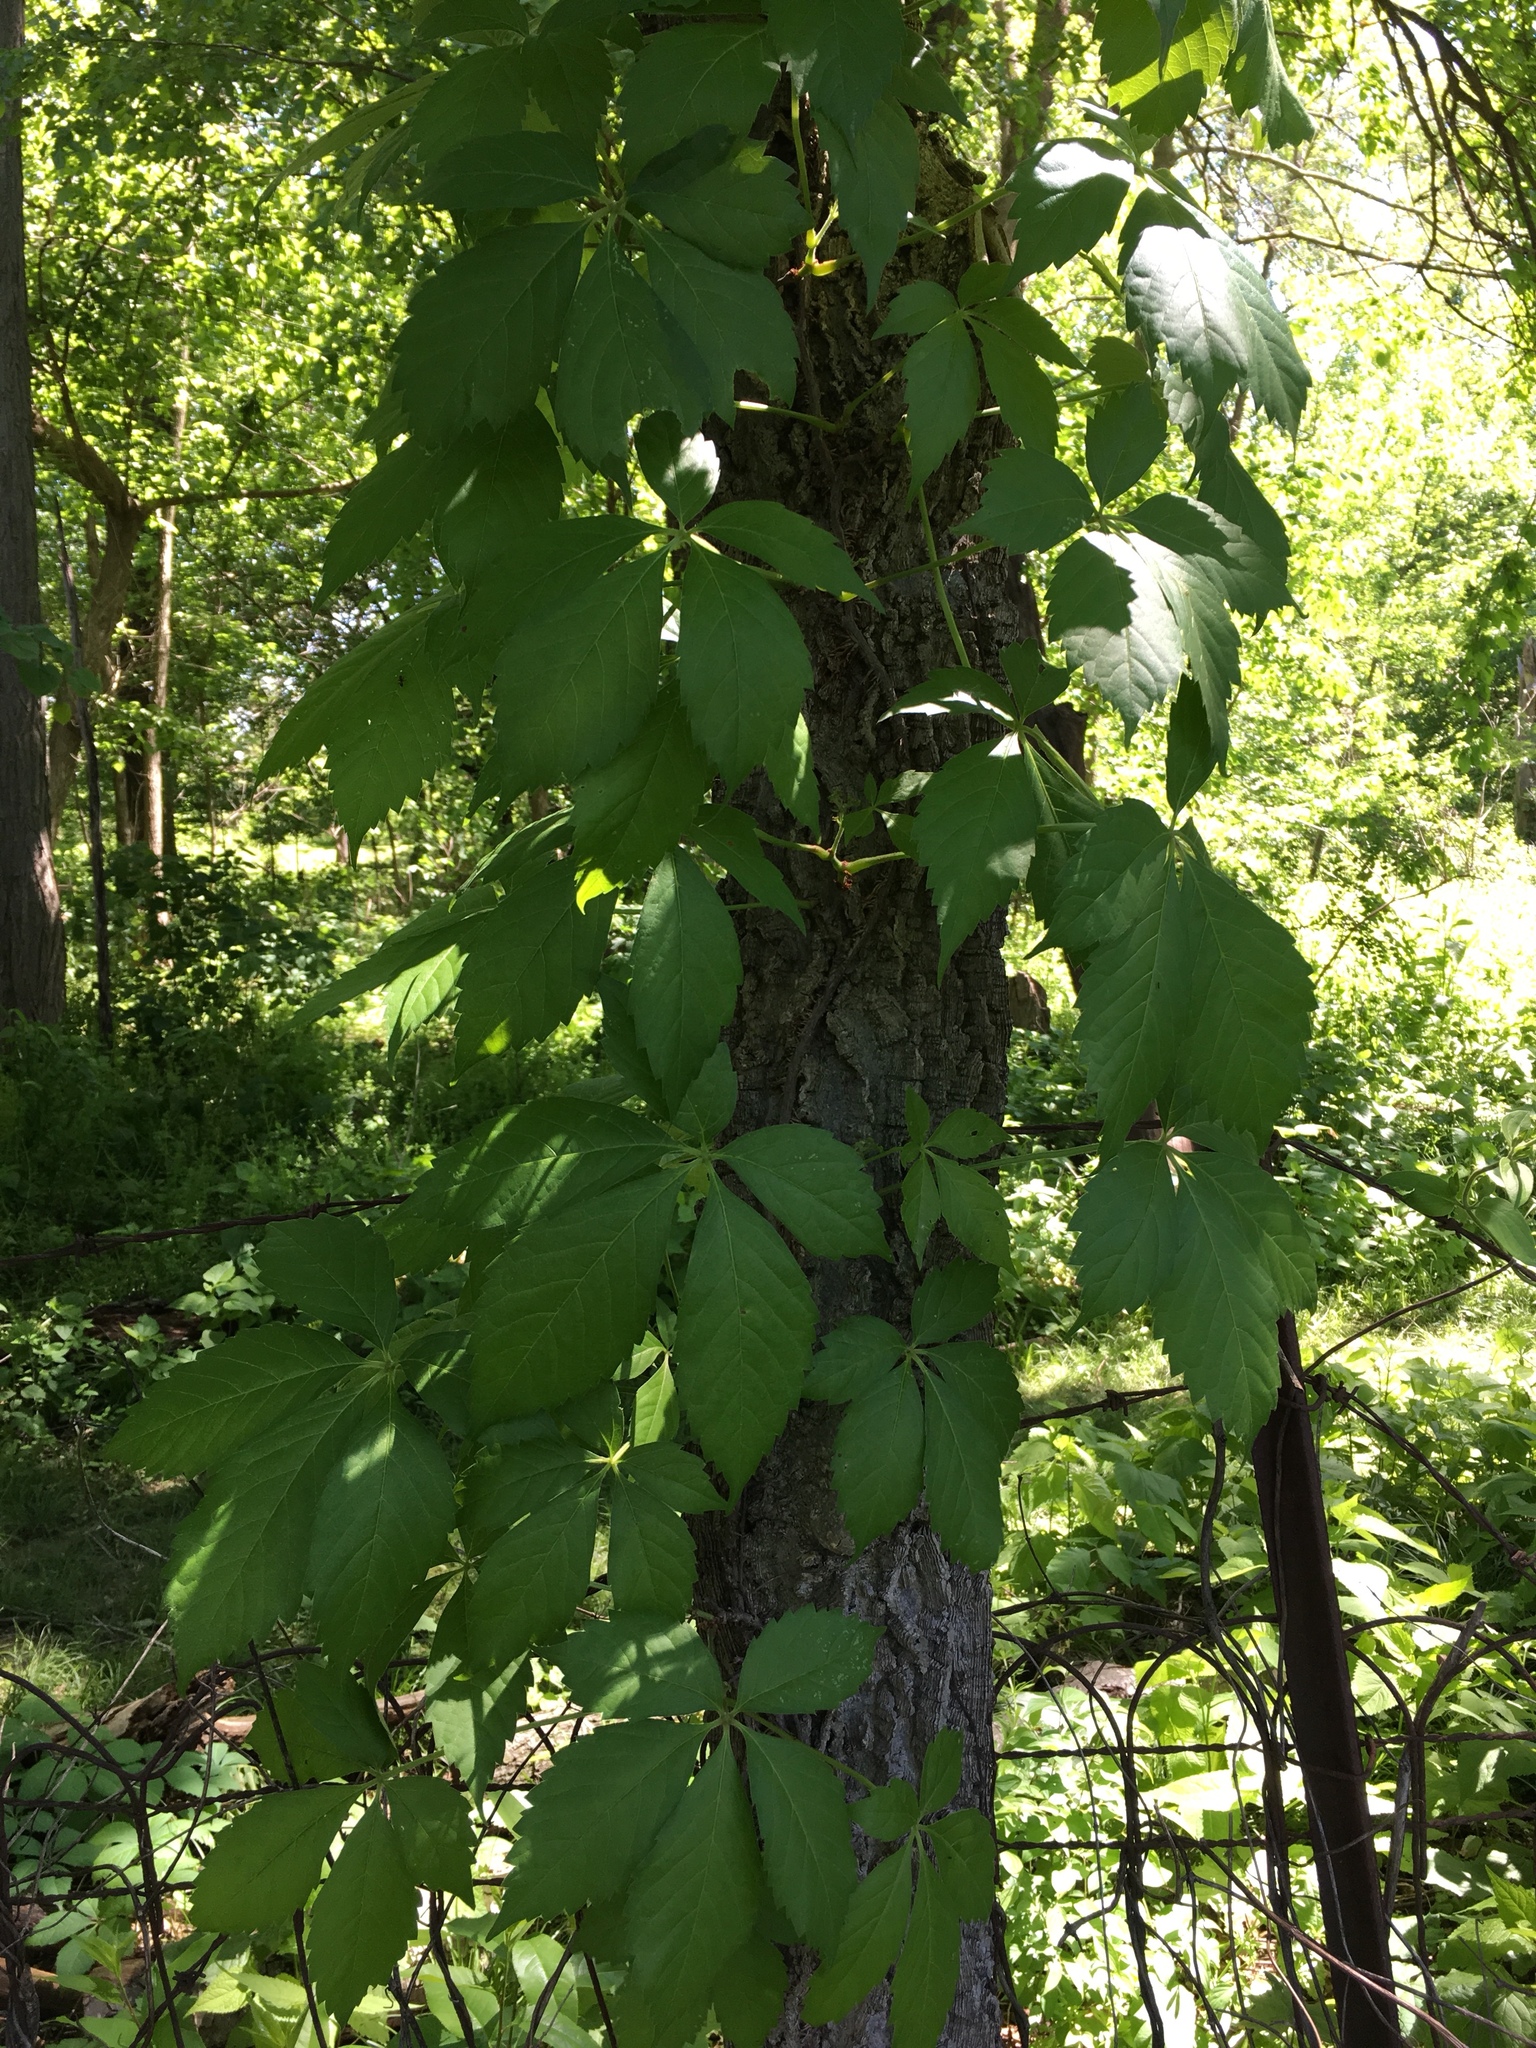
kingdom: Plantae
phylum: Tracheophyta
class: Magnoliopsida
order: Vitales
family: Vitaceae
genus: Parthenocissus
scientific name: Parthenocissus quinquefolia
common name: Virginia-creeper
